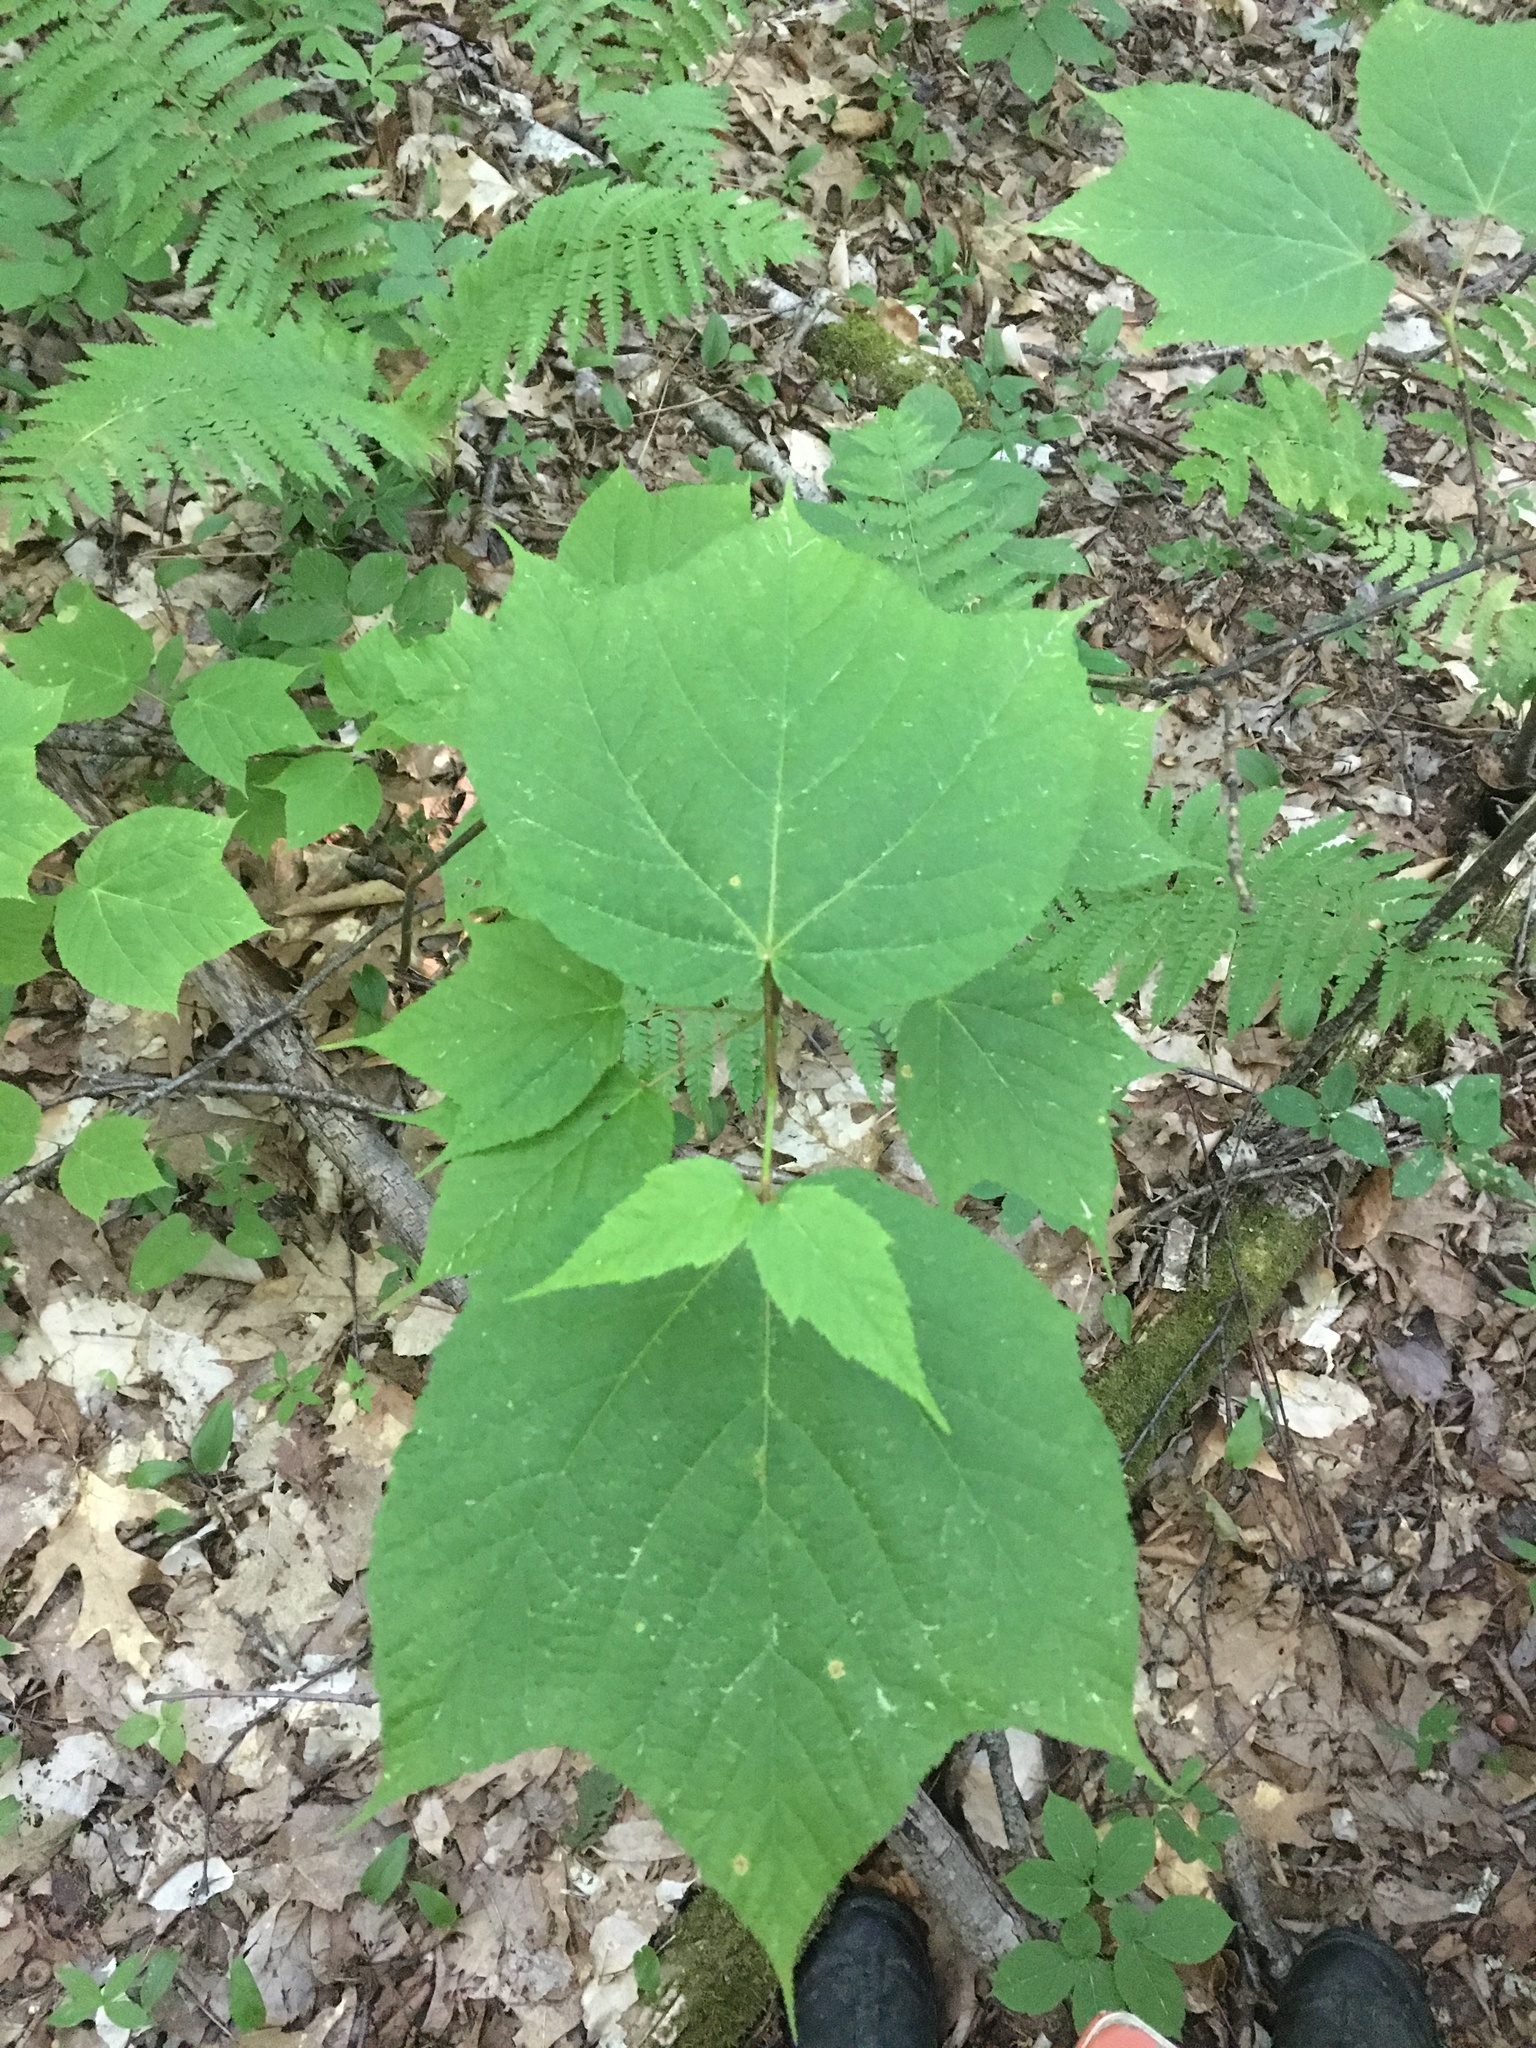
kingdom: Plantae
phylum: Tracheophyta
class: Magnoliopsida
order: Sapindales
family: Sapindaceae
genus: Acer
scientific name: Acer pensylvanicum
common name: Moosewood
